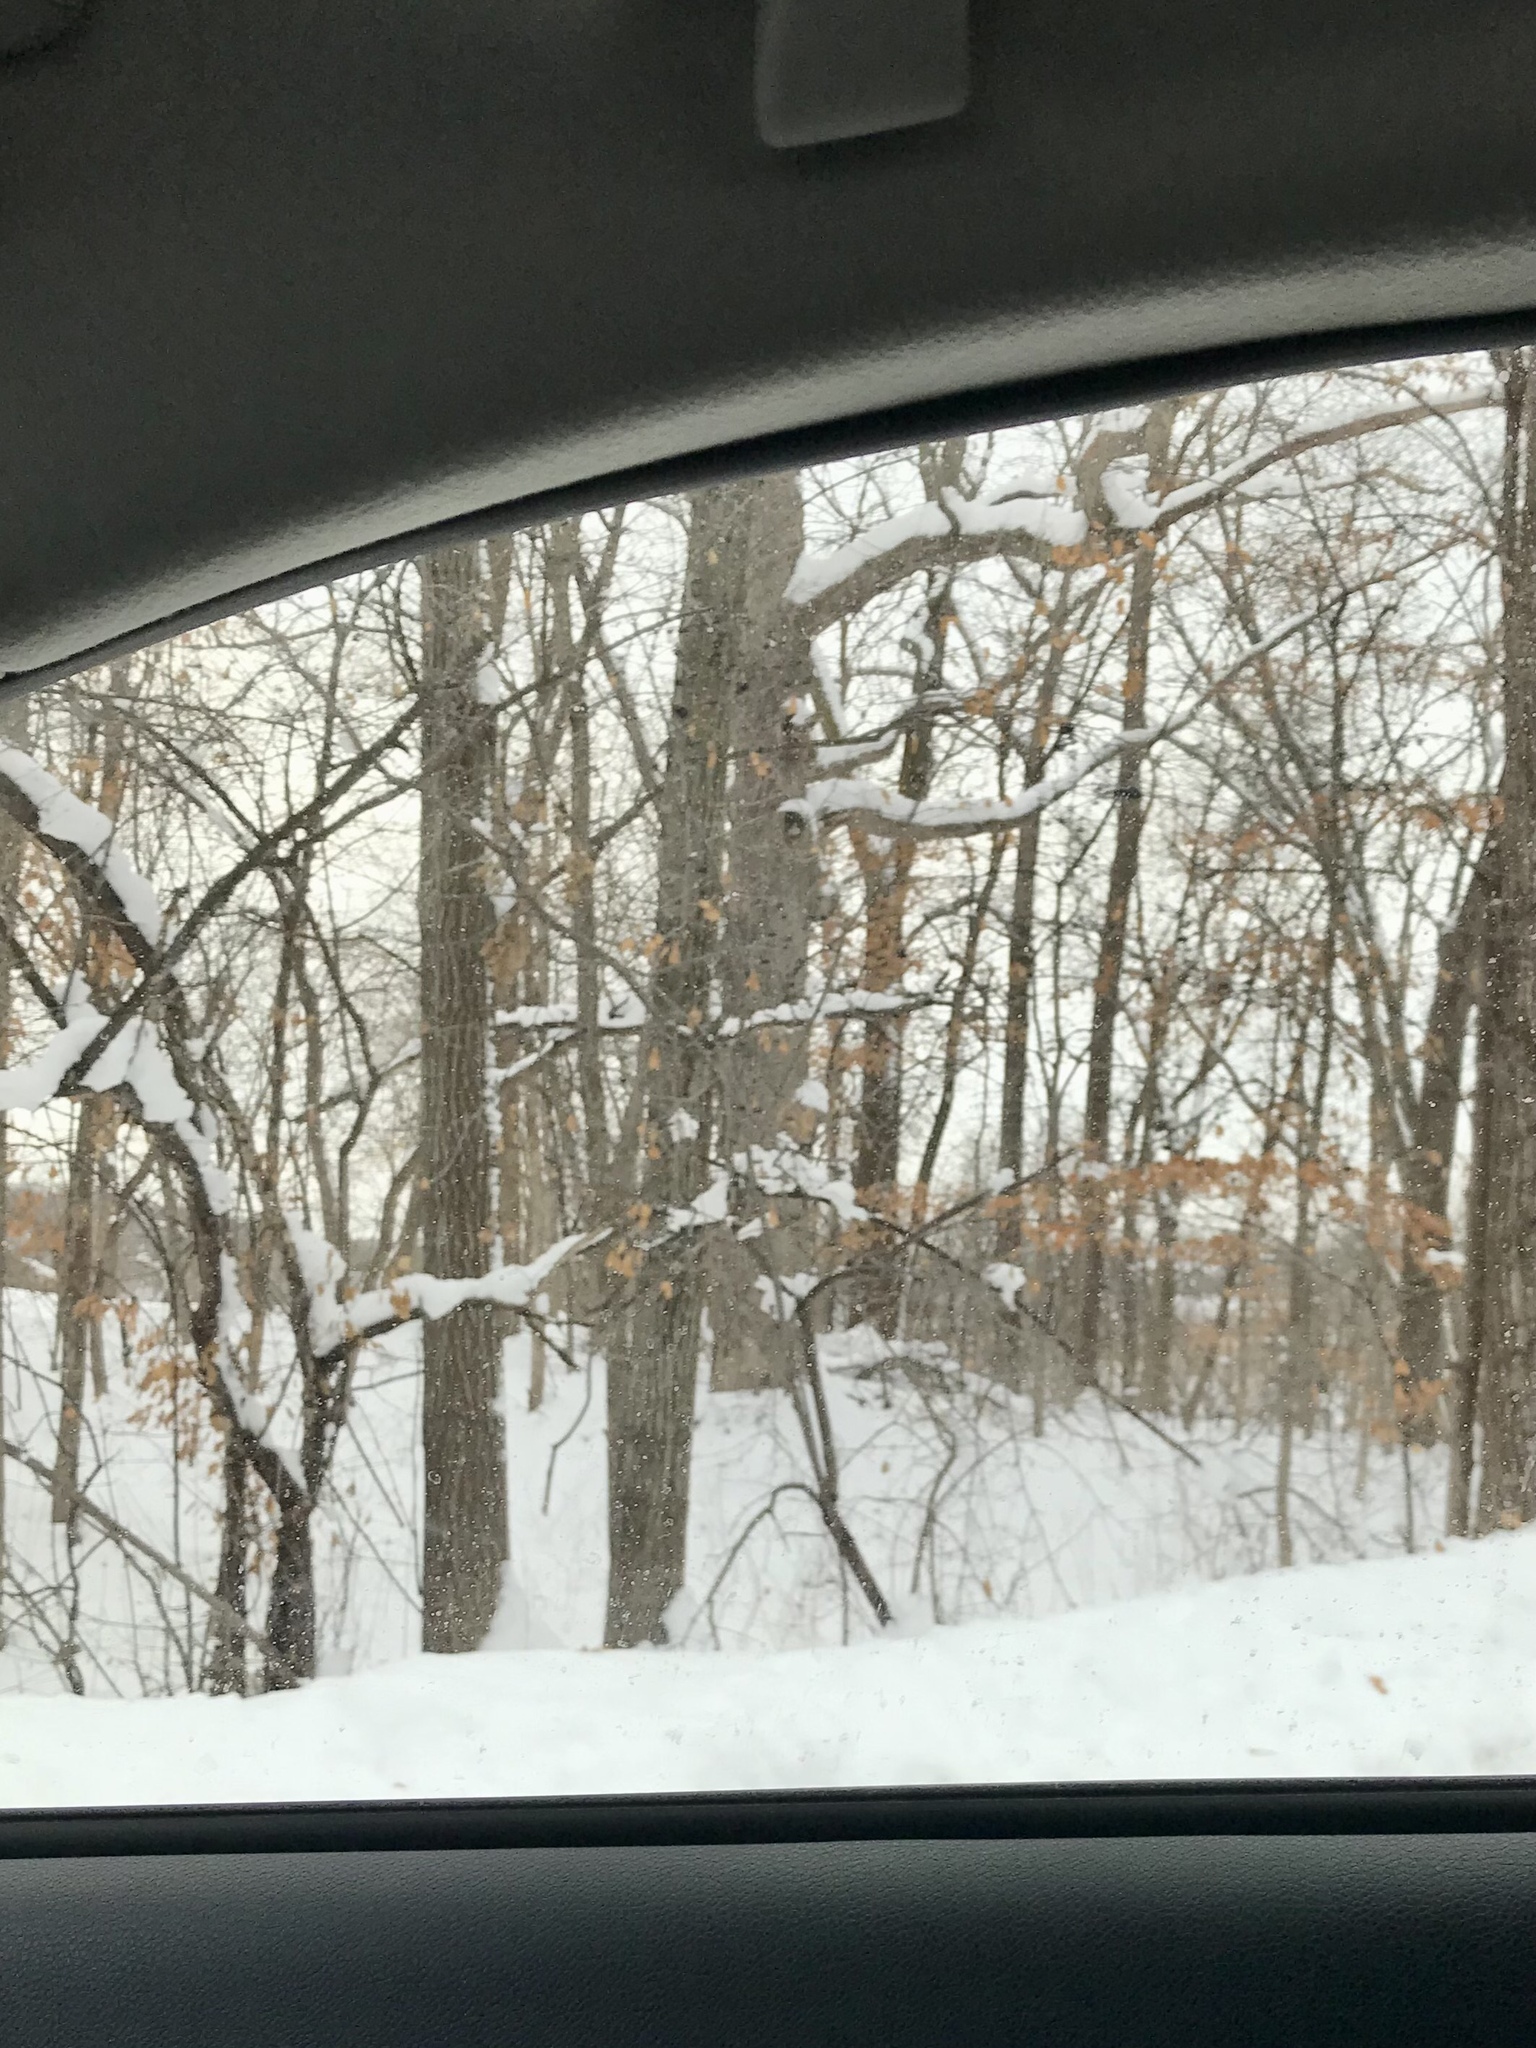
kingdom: Plantae
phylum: Tracheophyta
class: Magnoliopsida
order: Fagales
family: Fagaceae
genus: Quercus
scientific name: Quercus alba
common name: White oak
